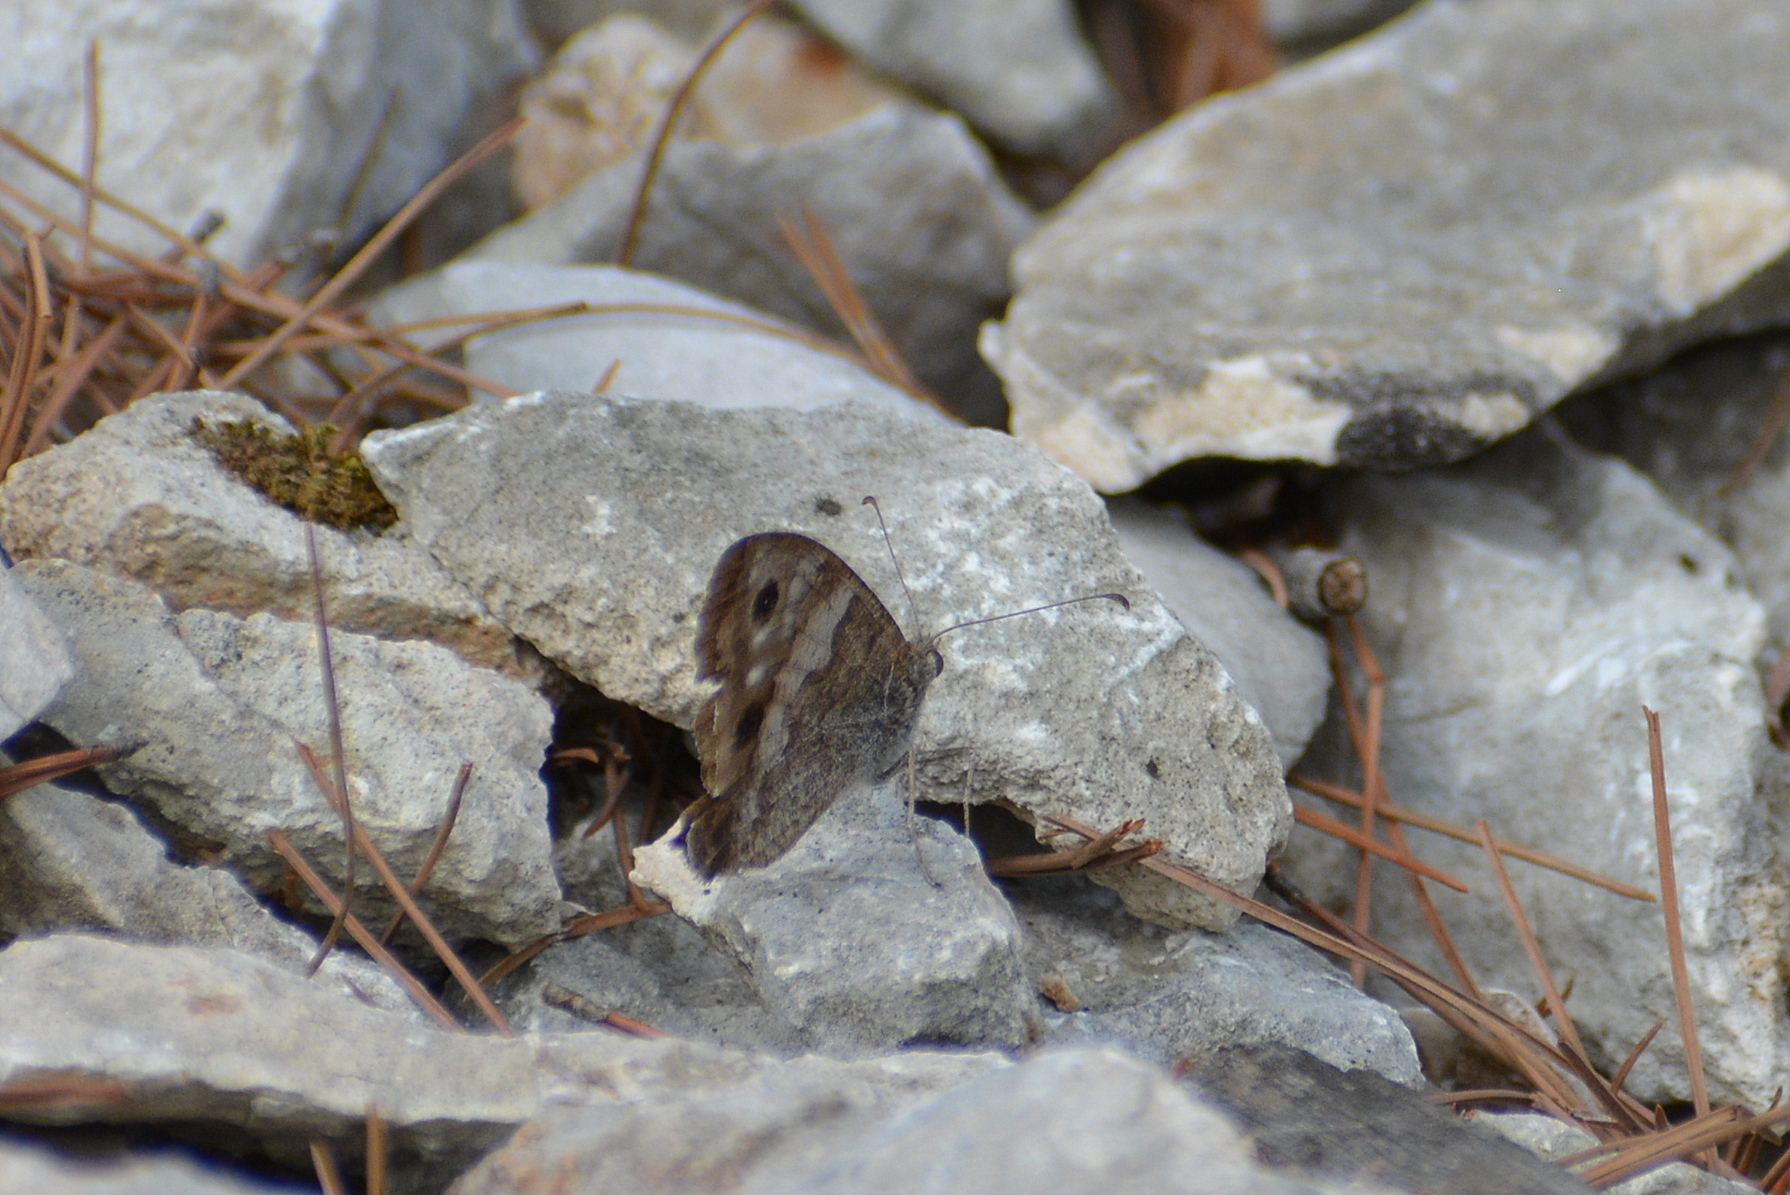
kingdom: Animalia
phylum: Arthropoda
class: Insecta
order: Lepidoptera
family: Nymphalidae
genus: Hipparchia
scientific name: Hipparchia statilinus
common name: Tree grayling
